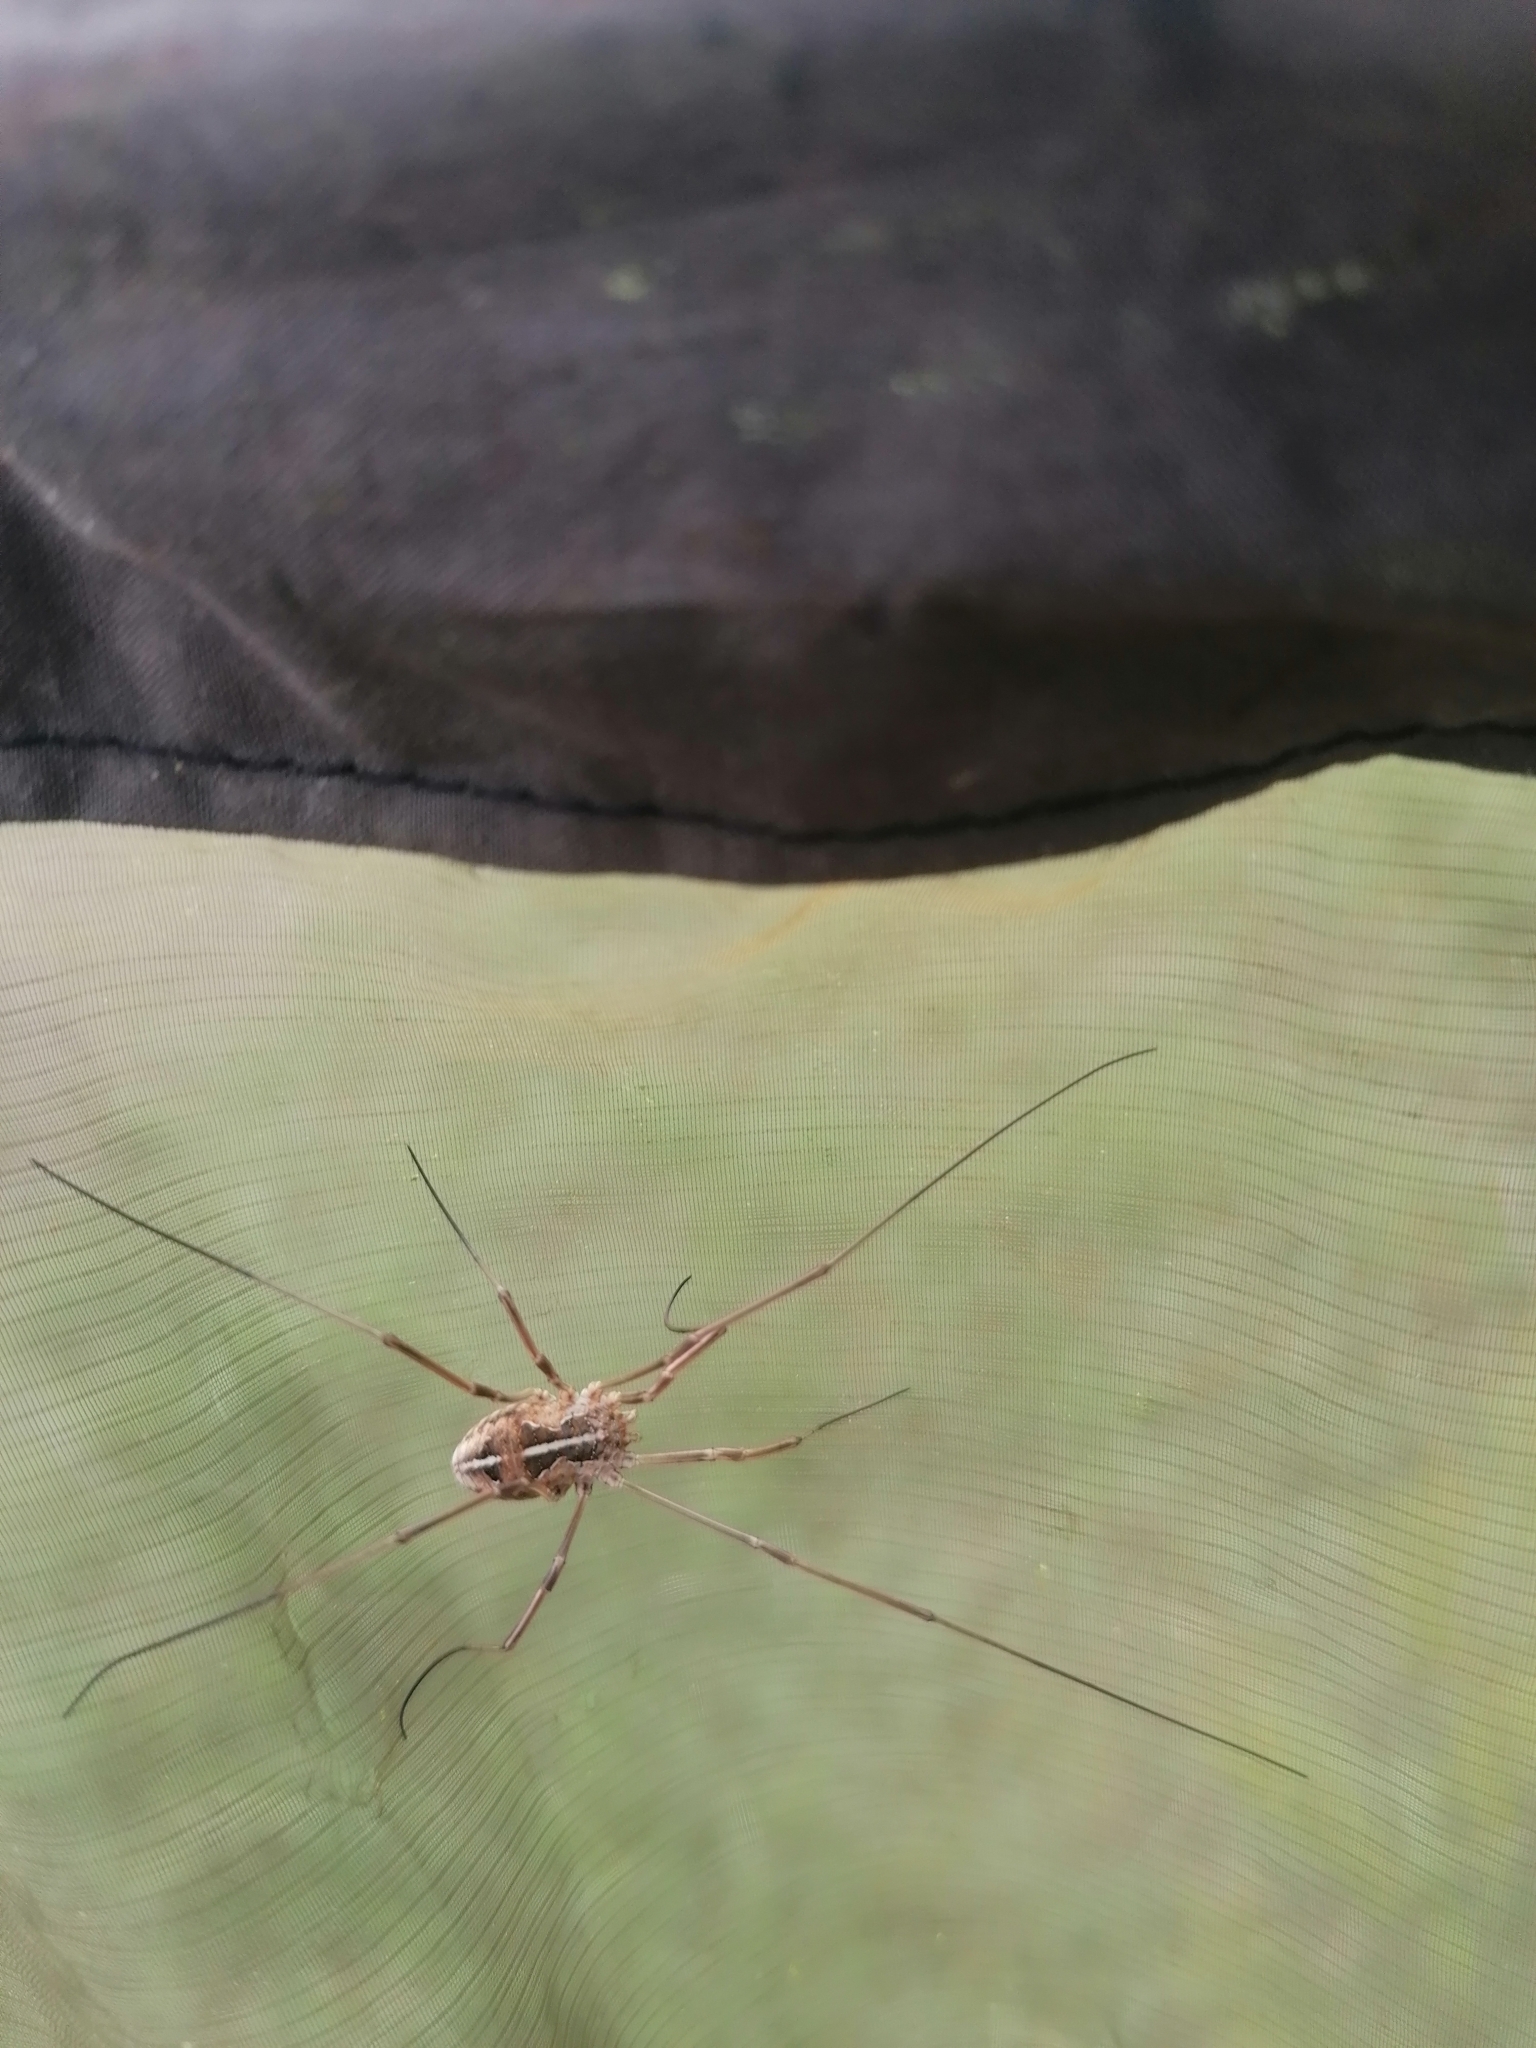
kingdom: Animalia
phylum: Arthropoda
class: Arachnida
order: Opiliones
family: Phalangiidae
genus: Metaphalangium
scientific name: Metaphalangium cirtanum
